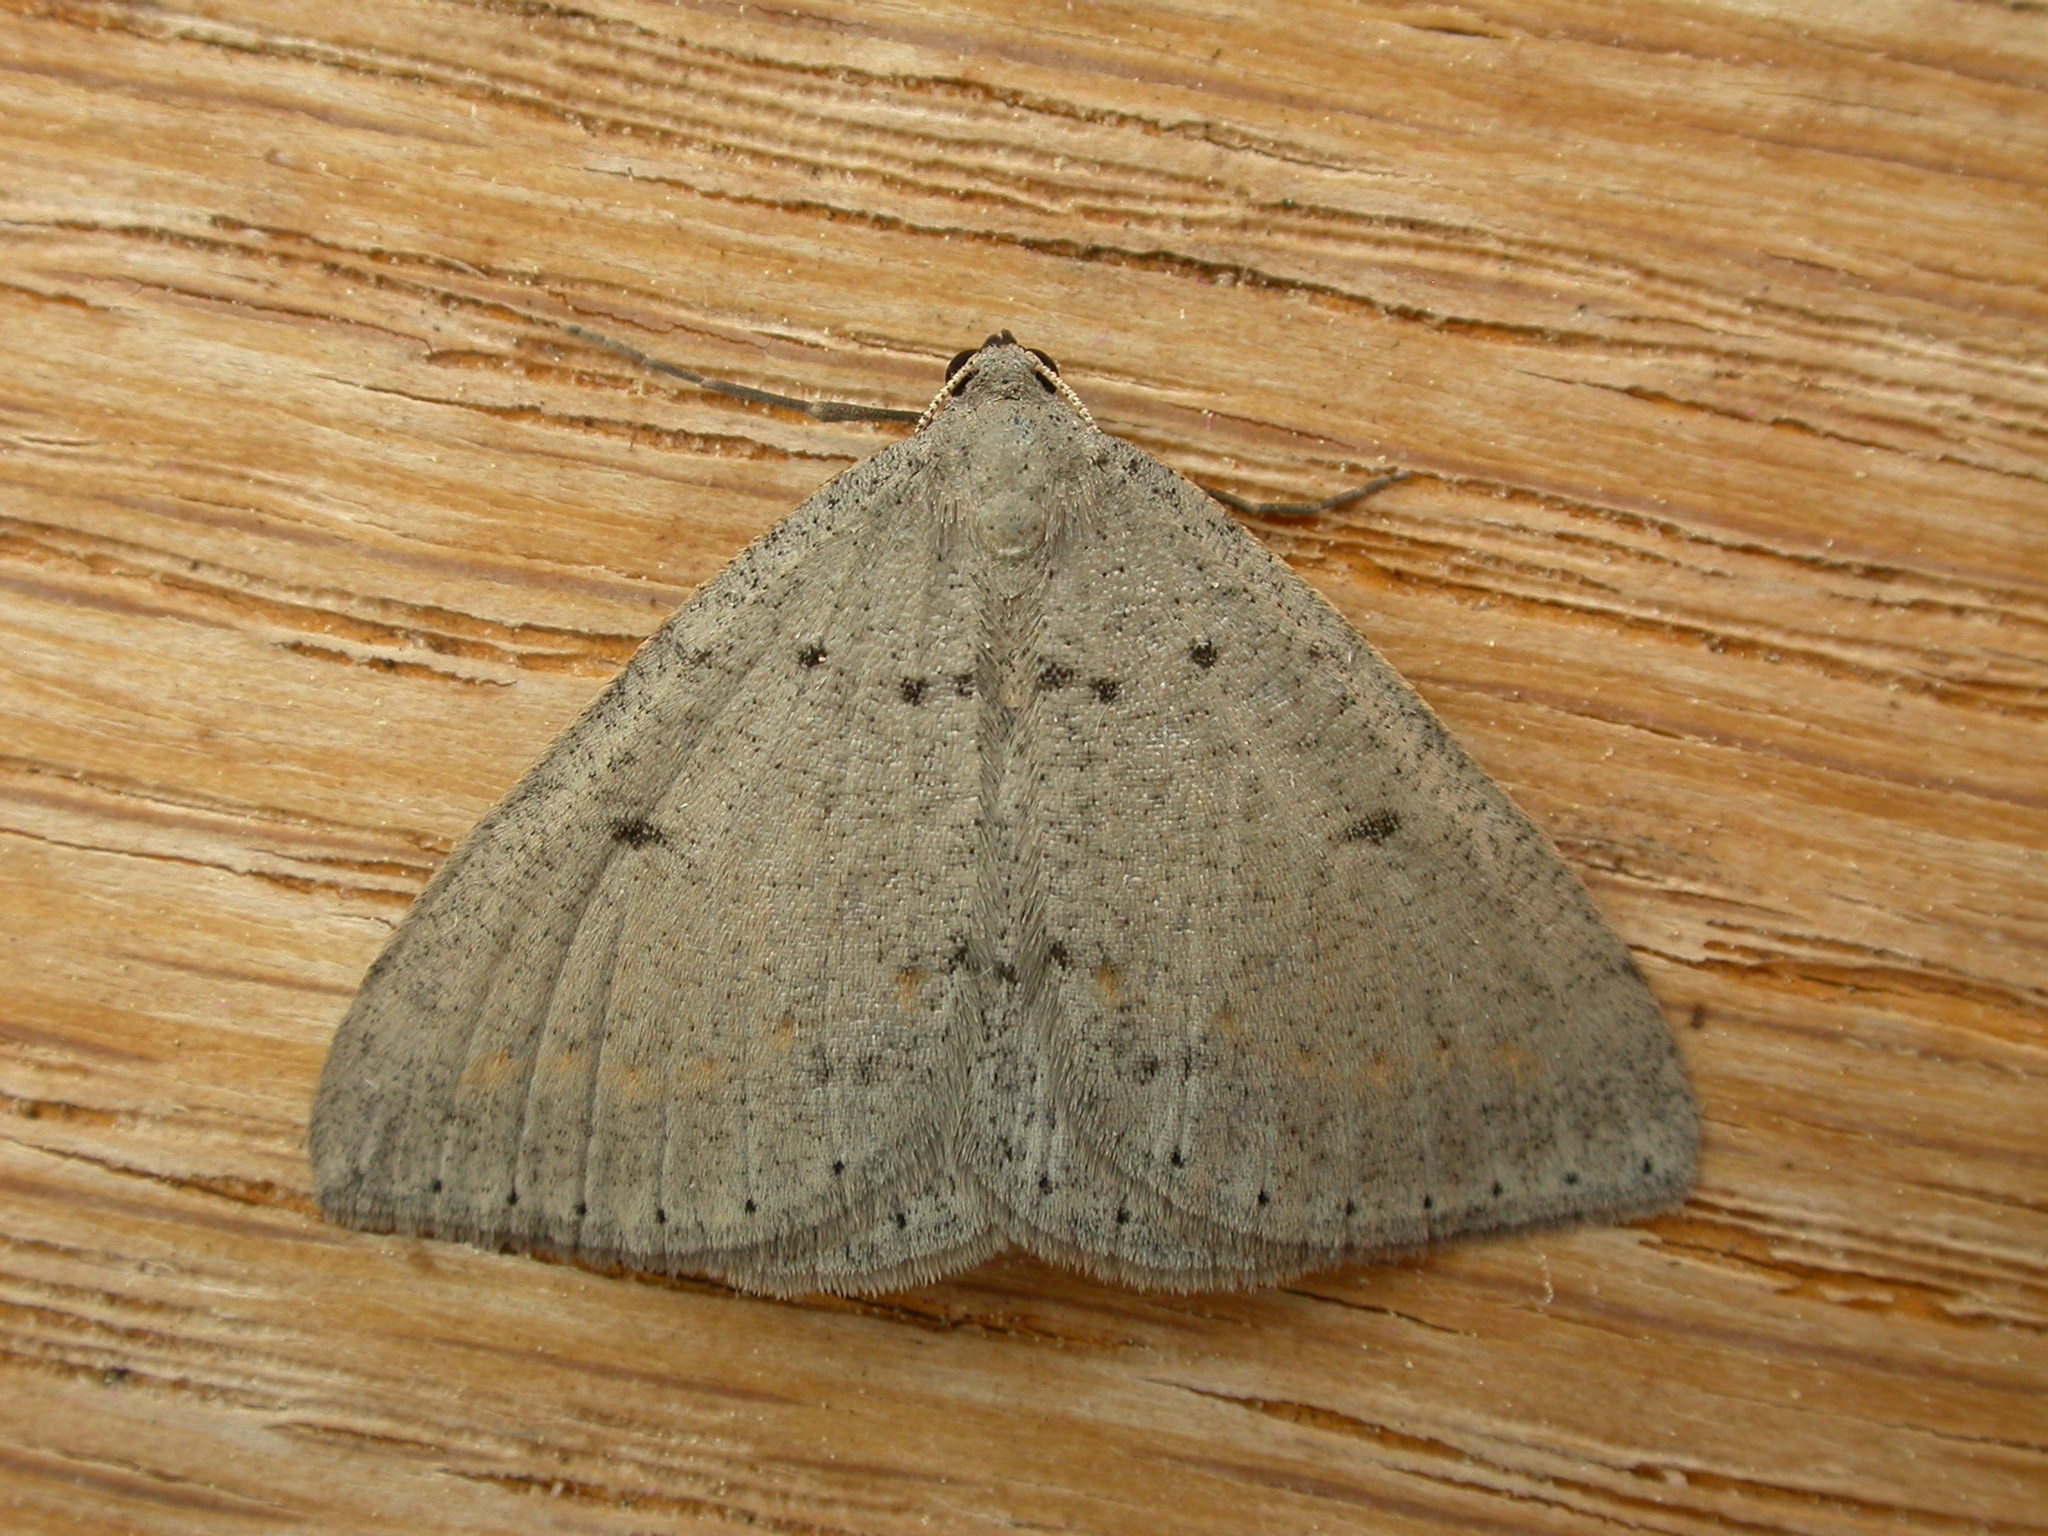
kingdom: Animalia
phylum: Arthropoda
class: Insecta
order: Lepidoptera
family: Geometridae
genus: Taxeotis
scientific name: Taxeotis reserata
